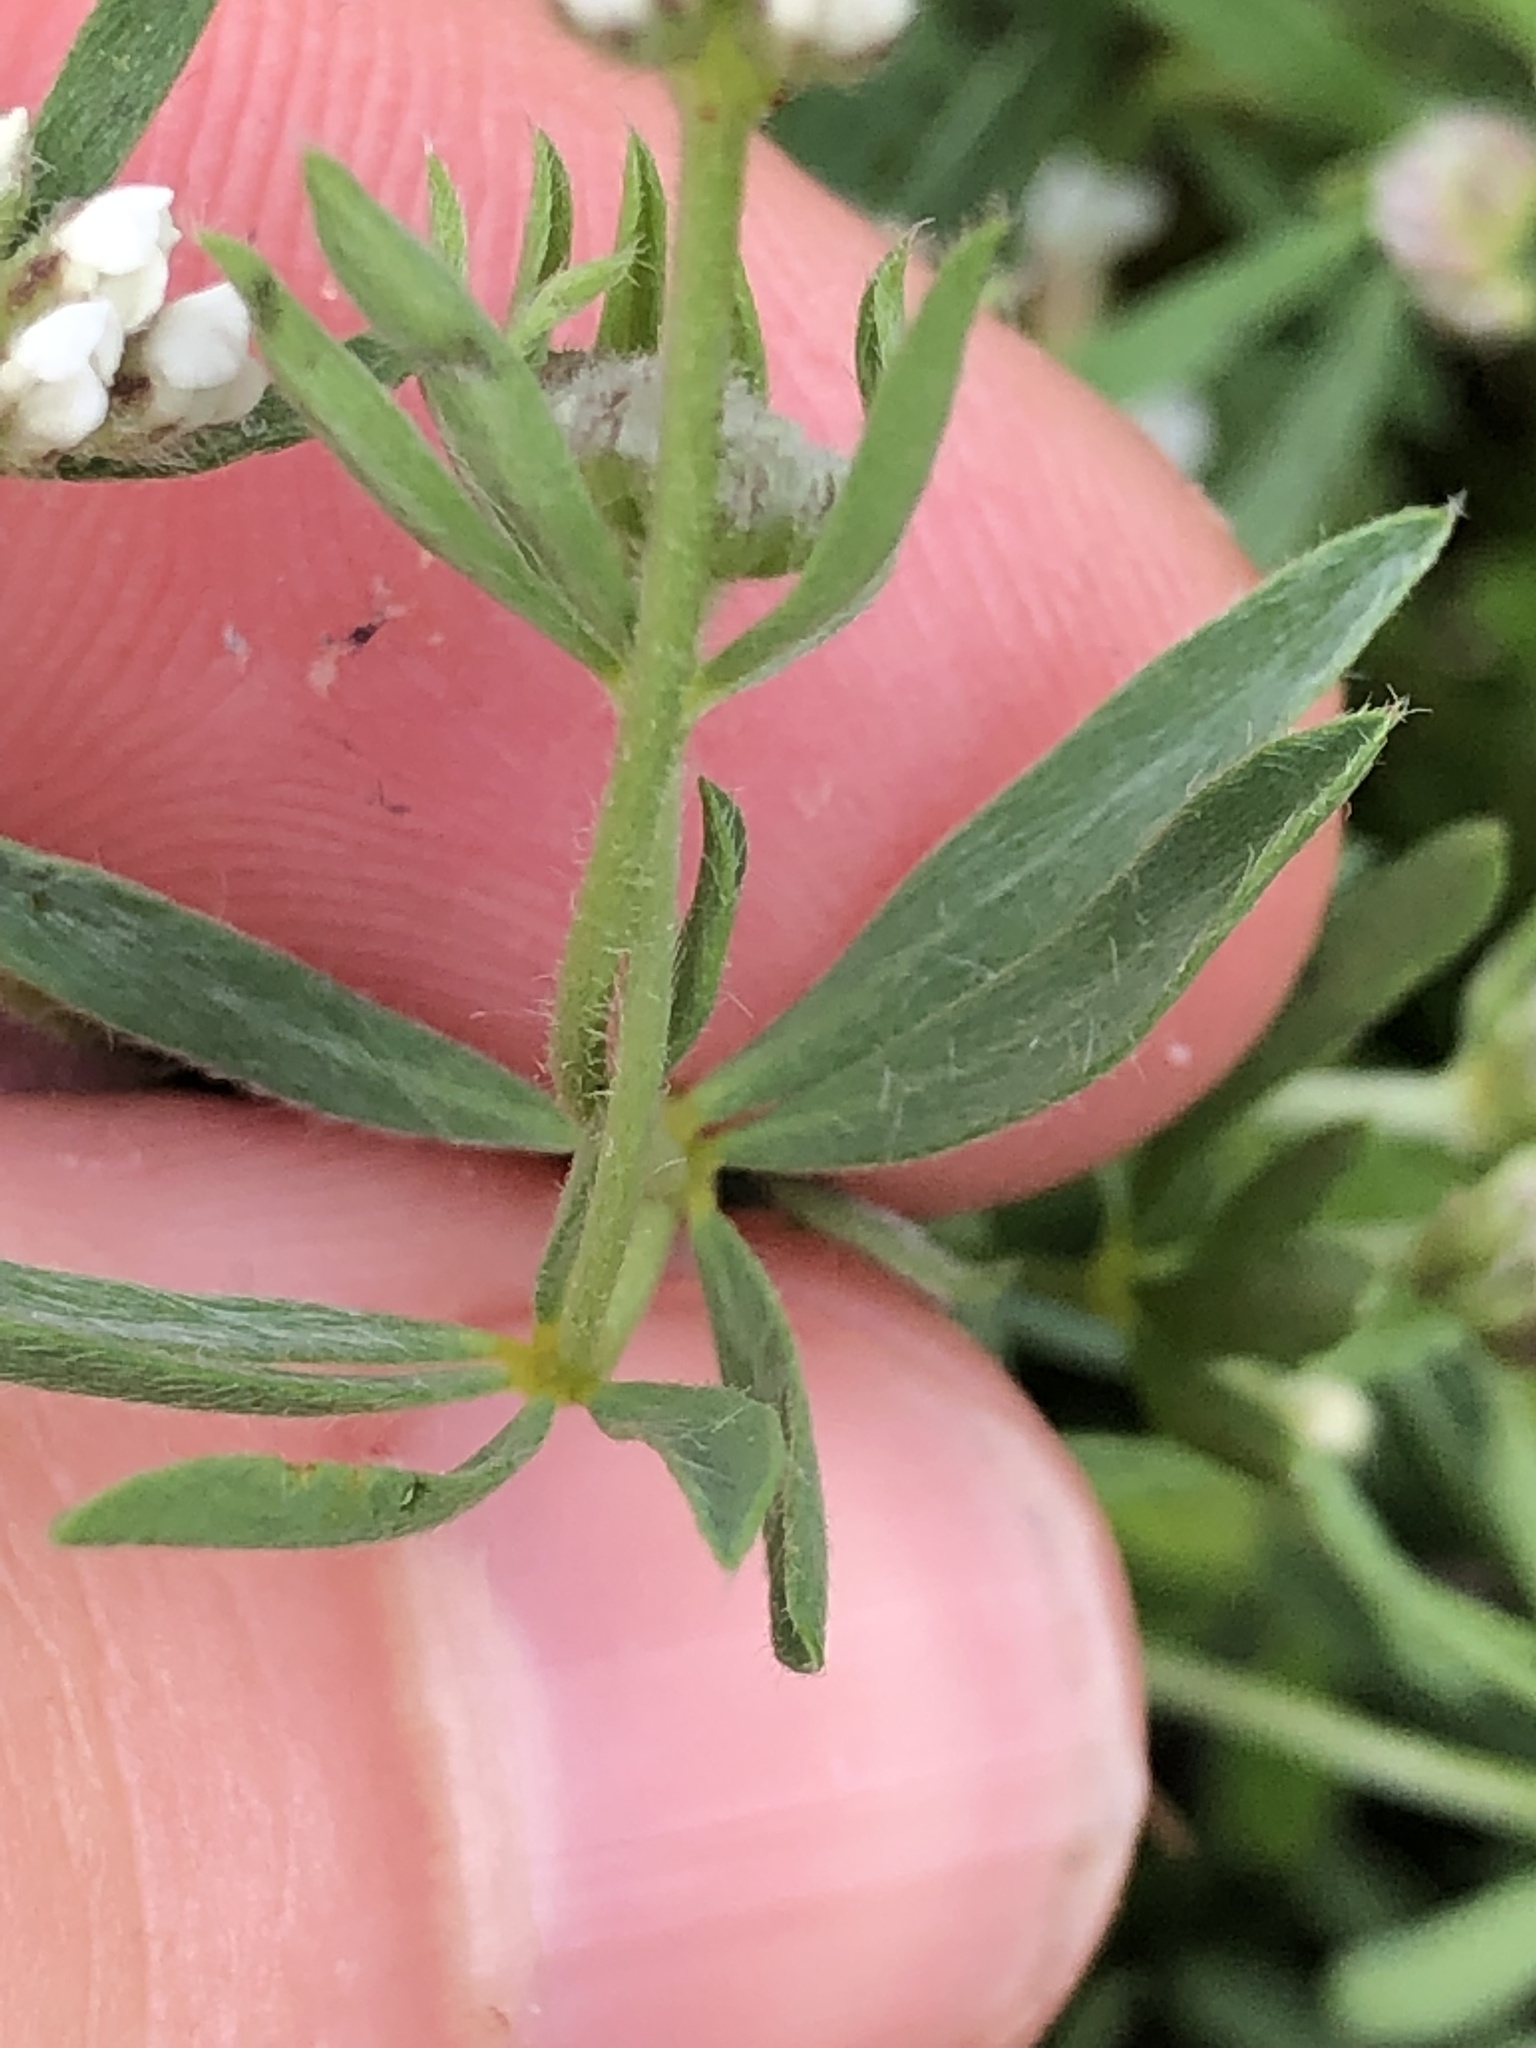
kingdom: Plantae
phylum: Tracheophyta
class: Magnoliopsida
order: Fabales
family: Fabaceae
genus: Lotus
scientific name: Lotus germanicus
